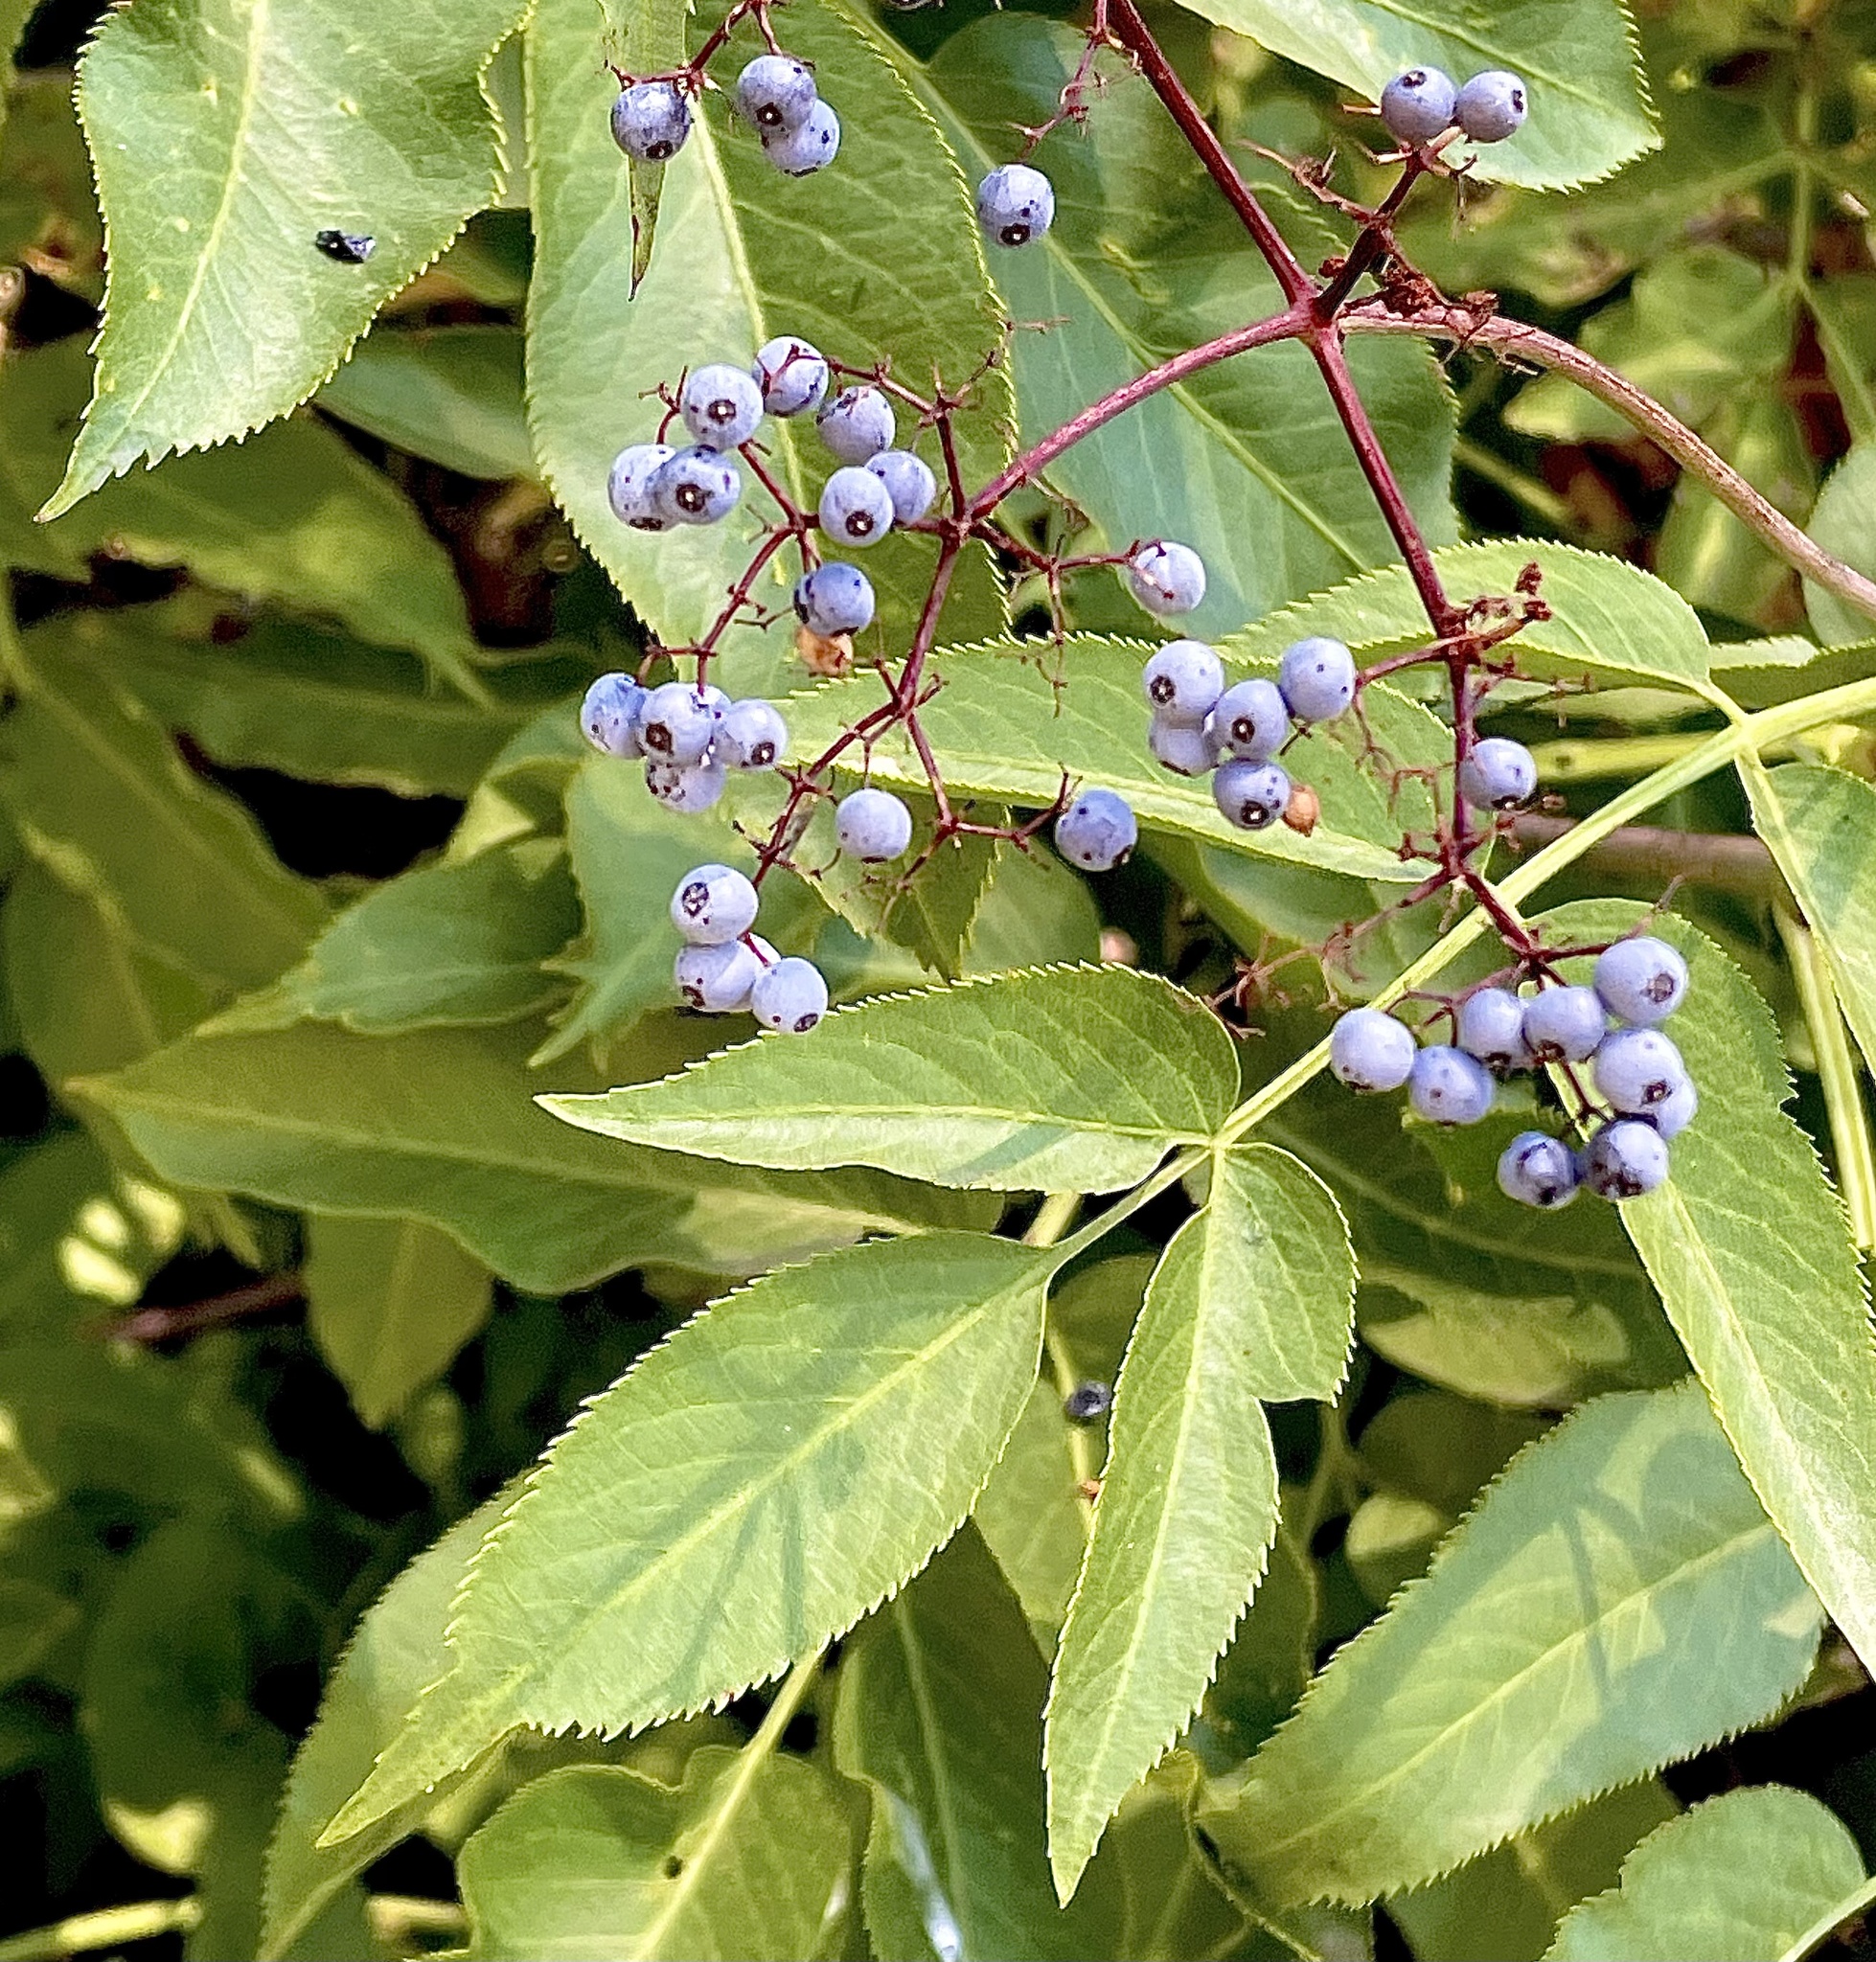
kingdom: Plantae
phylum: Tracheophyta
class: Magnoliopsida
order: Dipsacales
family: Viburnaceae
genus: Sambucus
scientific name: Sambucus cerulea
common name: Blue elder
